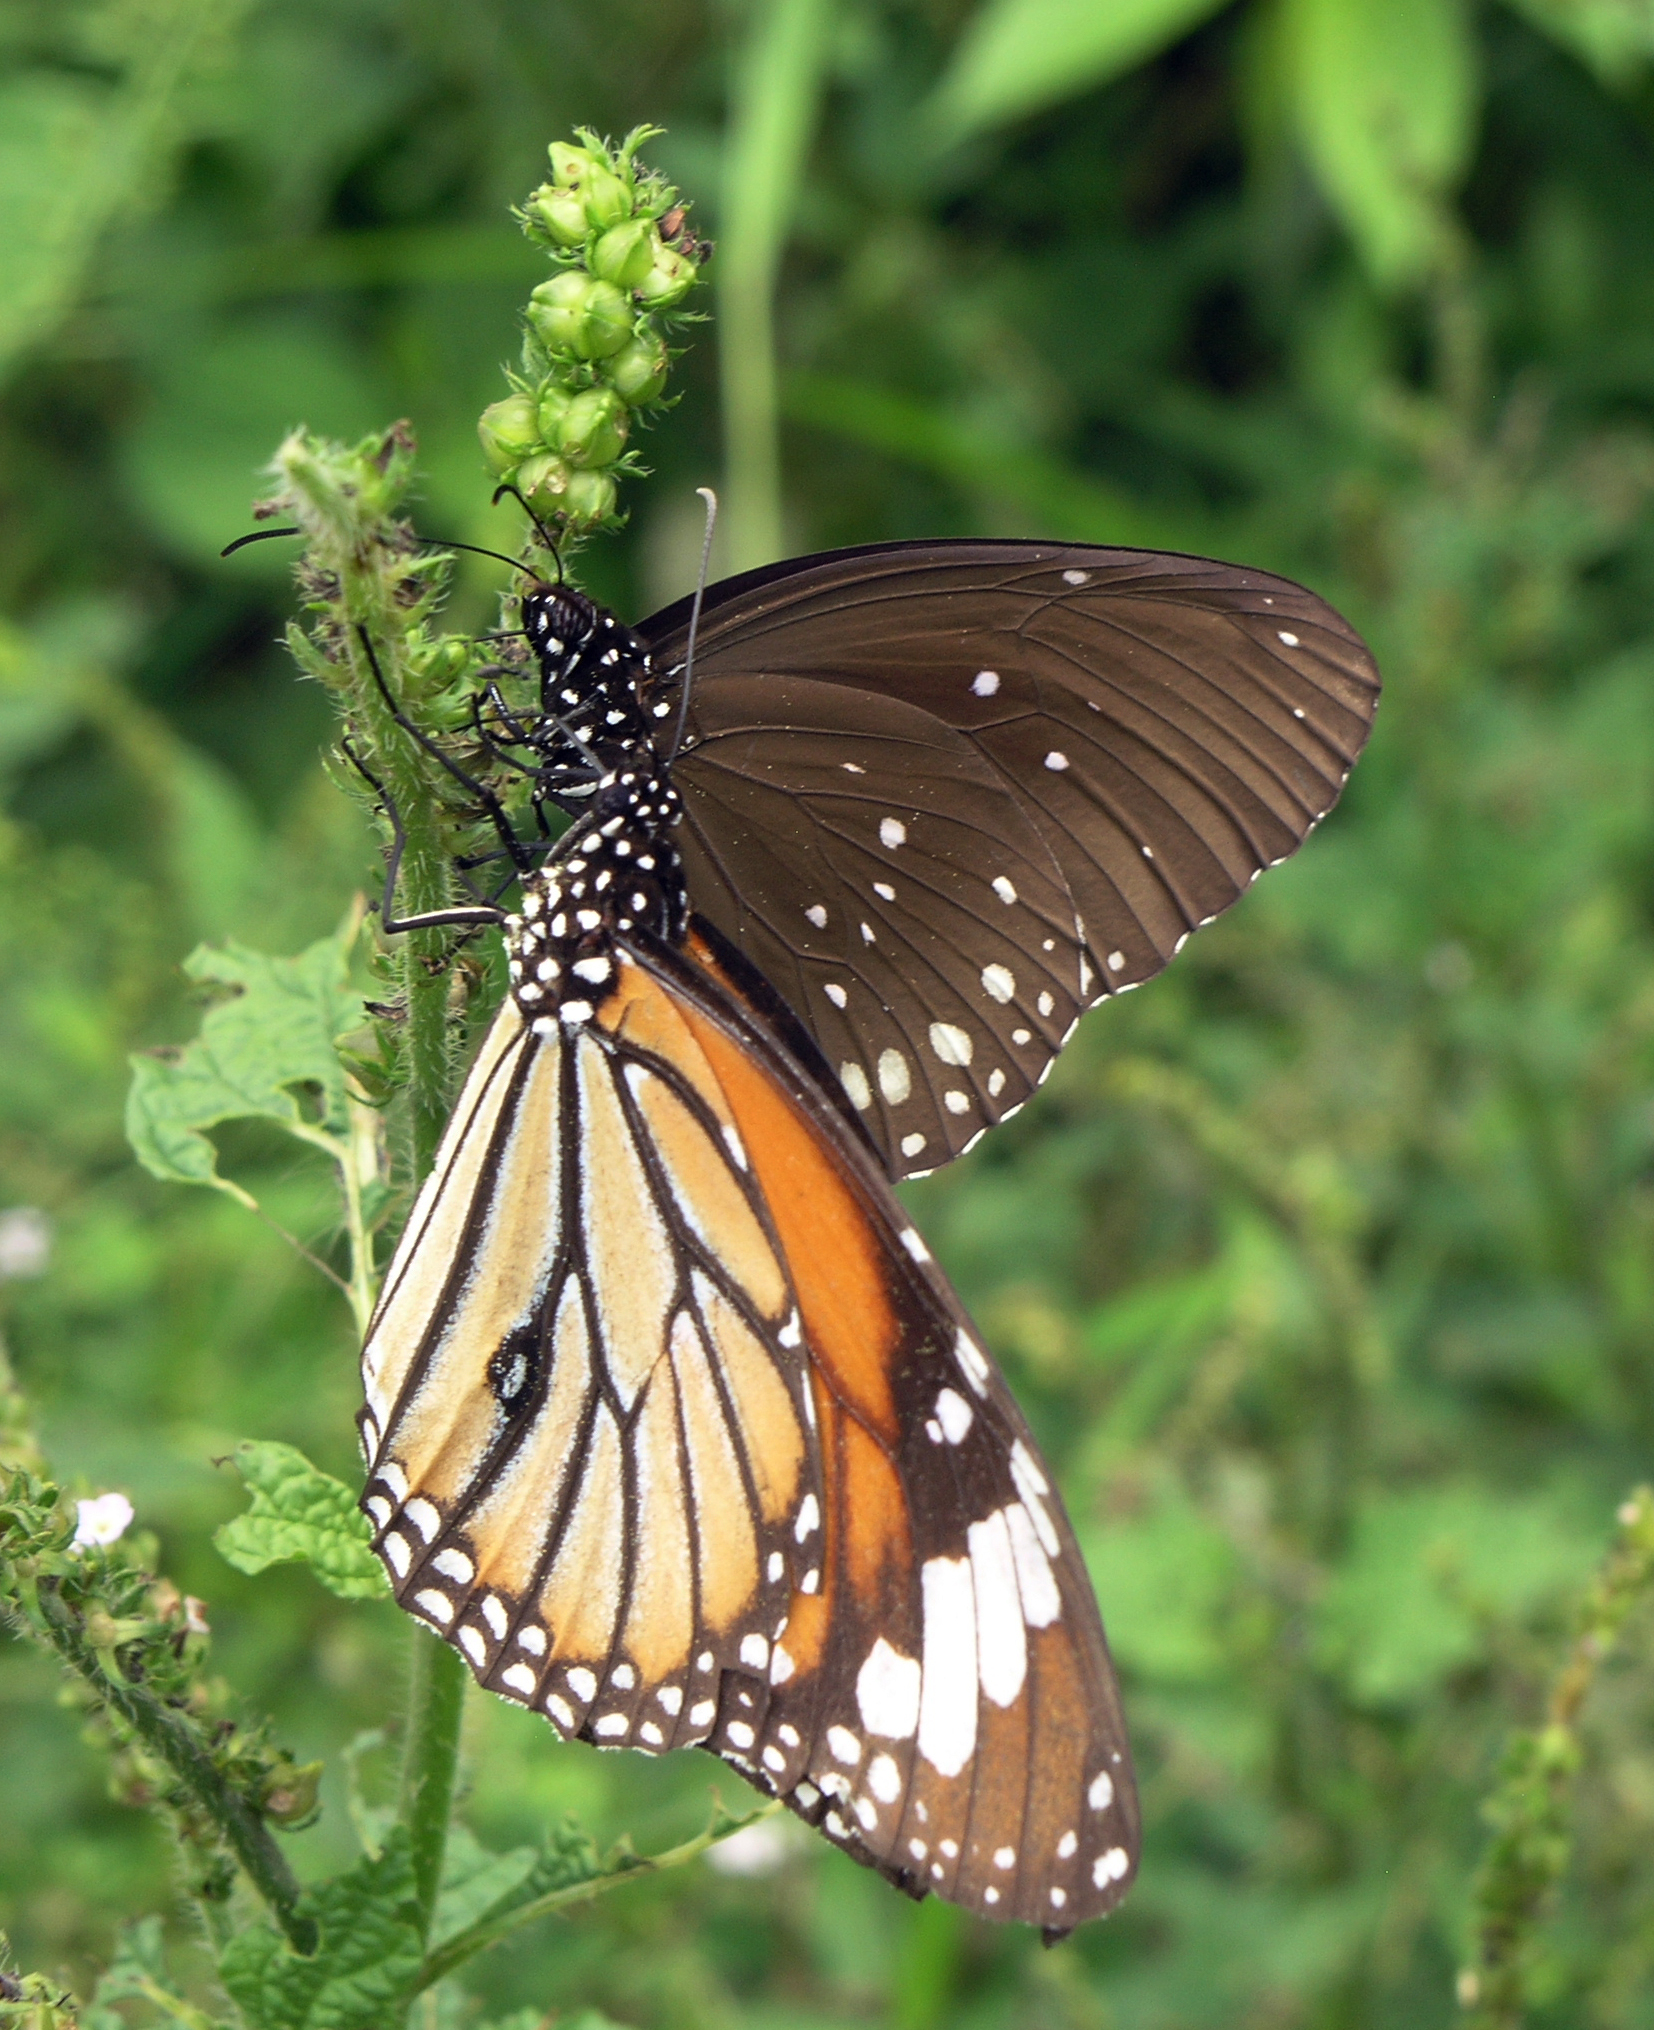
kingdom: Animalia
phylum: Arthropoda
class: Insecta
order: Lepidoptera
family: Nymphalidae
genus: Danaus
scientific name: Danaus genutia
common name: Common tiger butterfly
